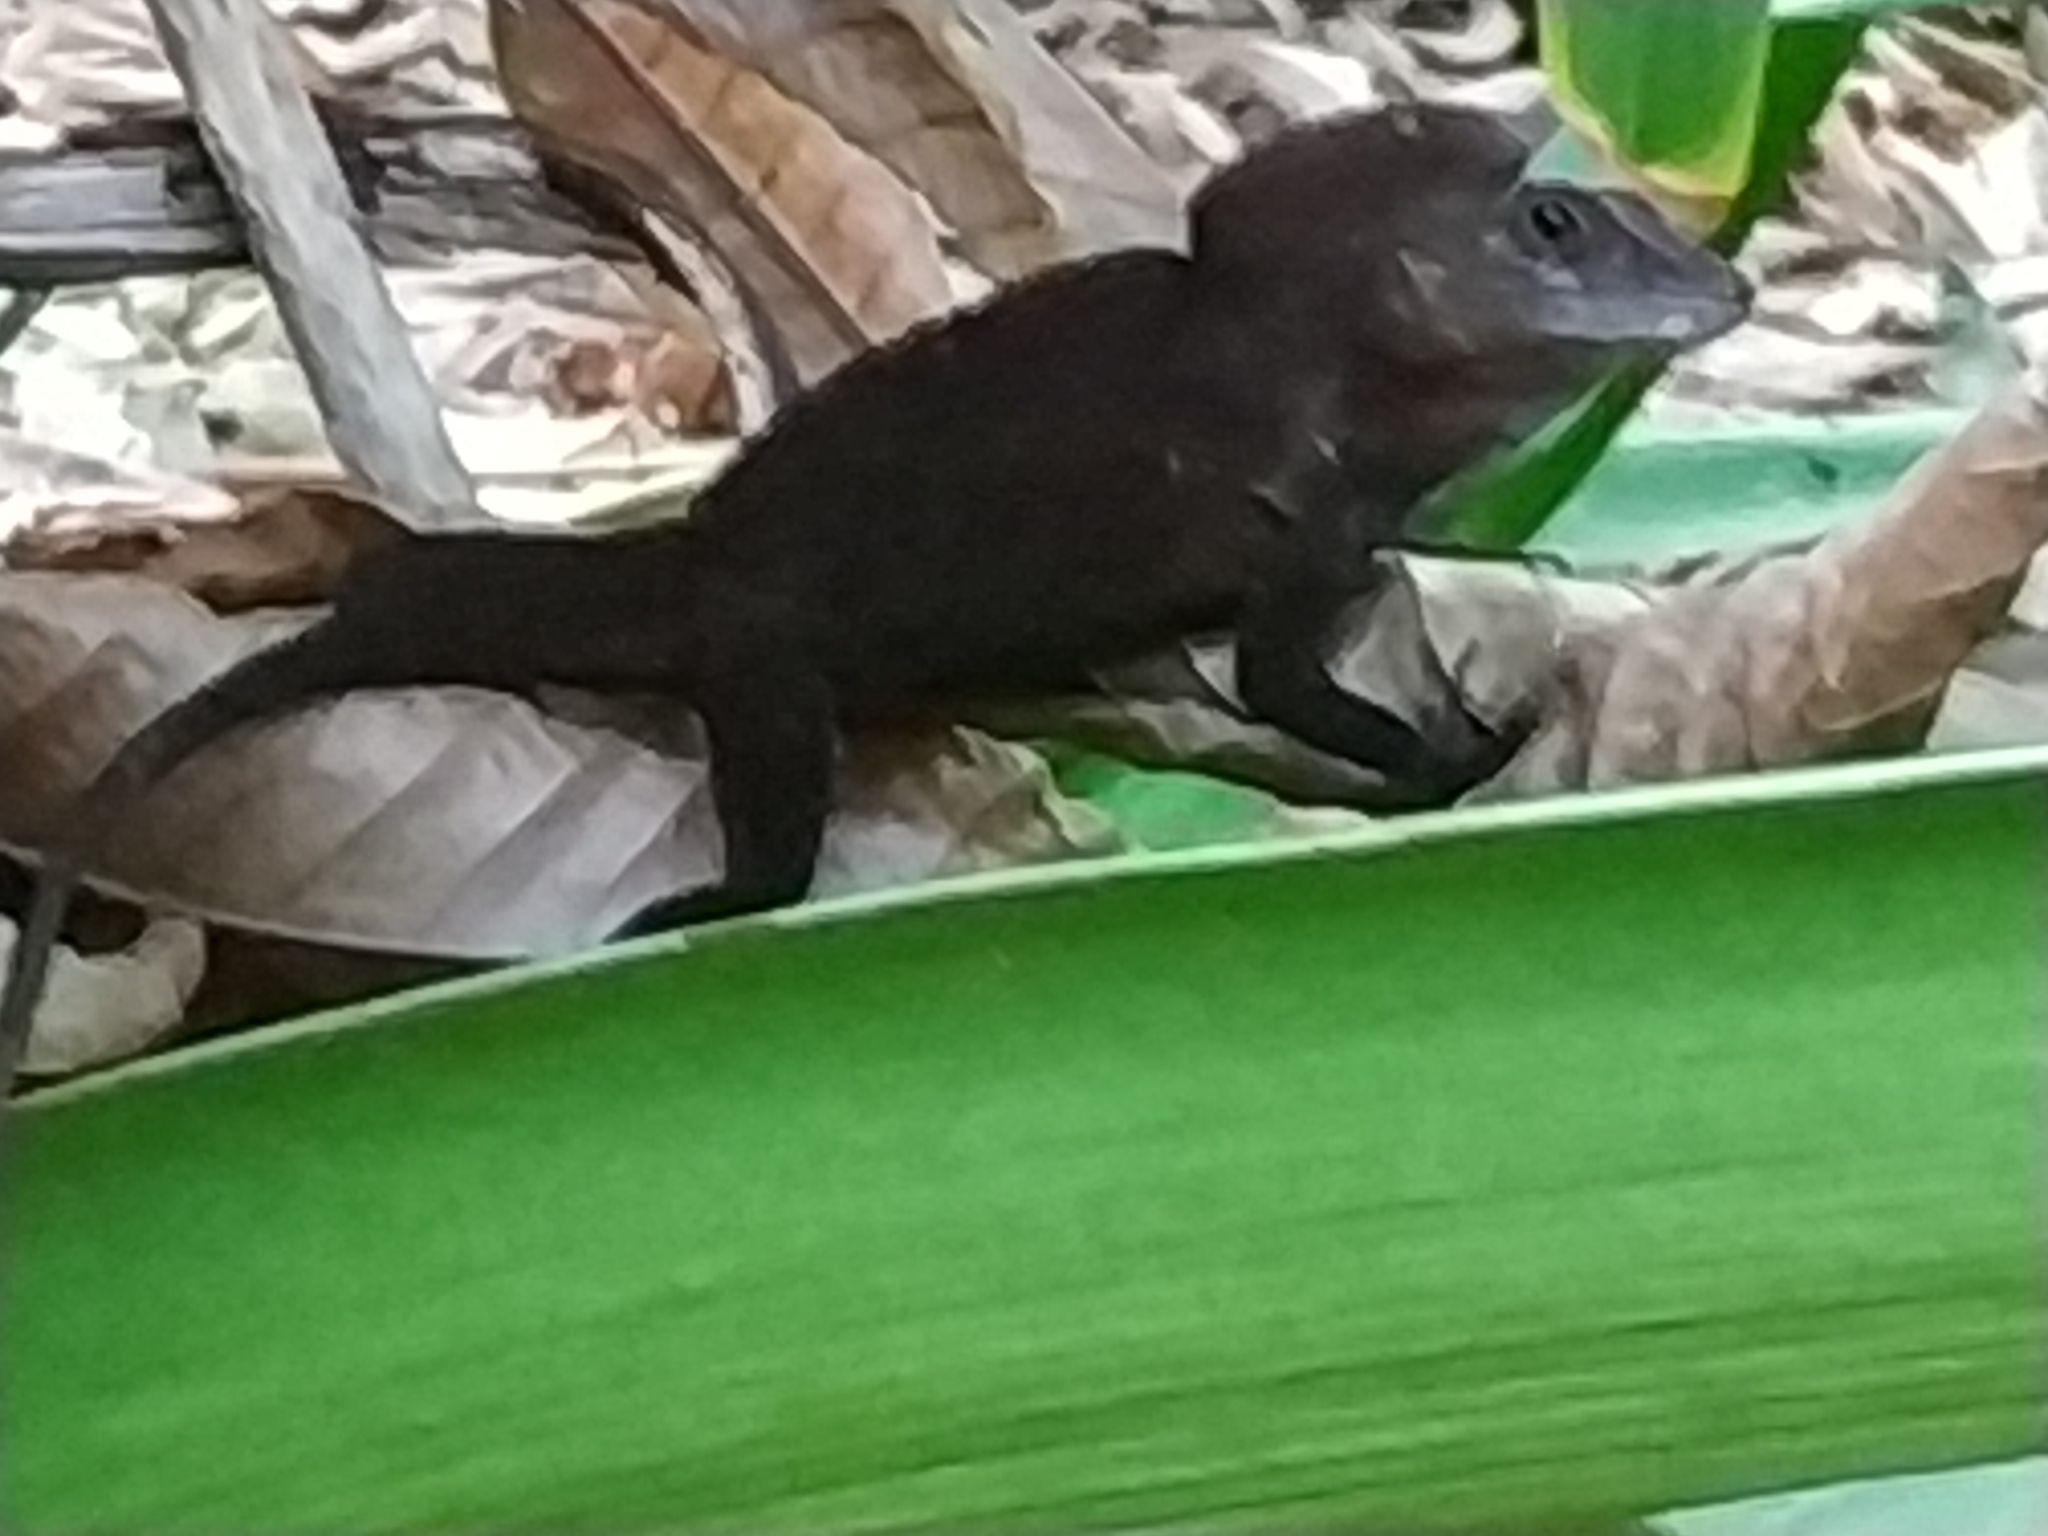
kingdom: Animalia
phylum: Chordata
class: Squamata
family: Dactyloidae
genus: Anolis
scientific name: Anolis cristatellus
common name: Crested anole
